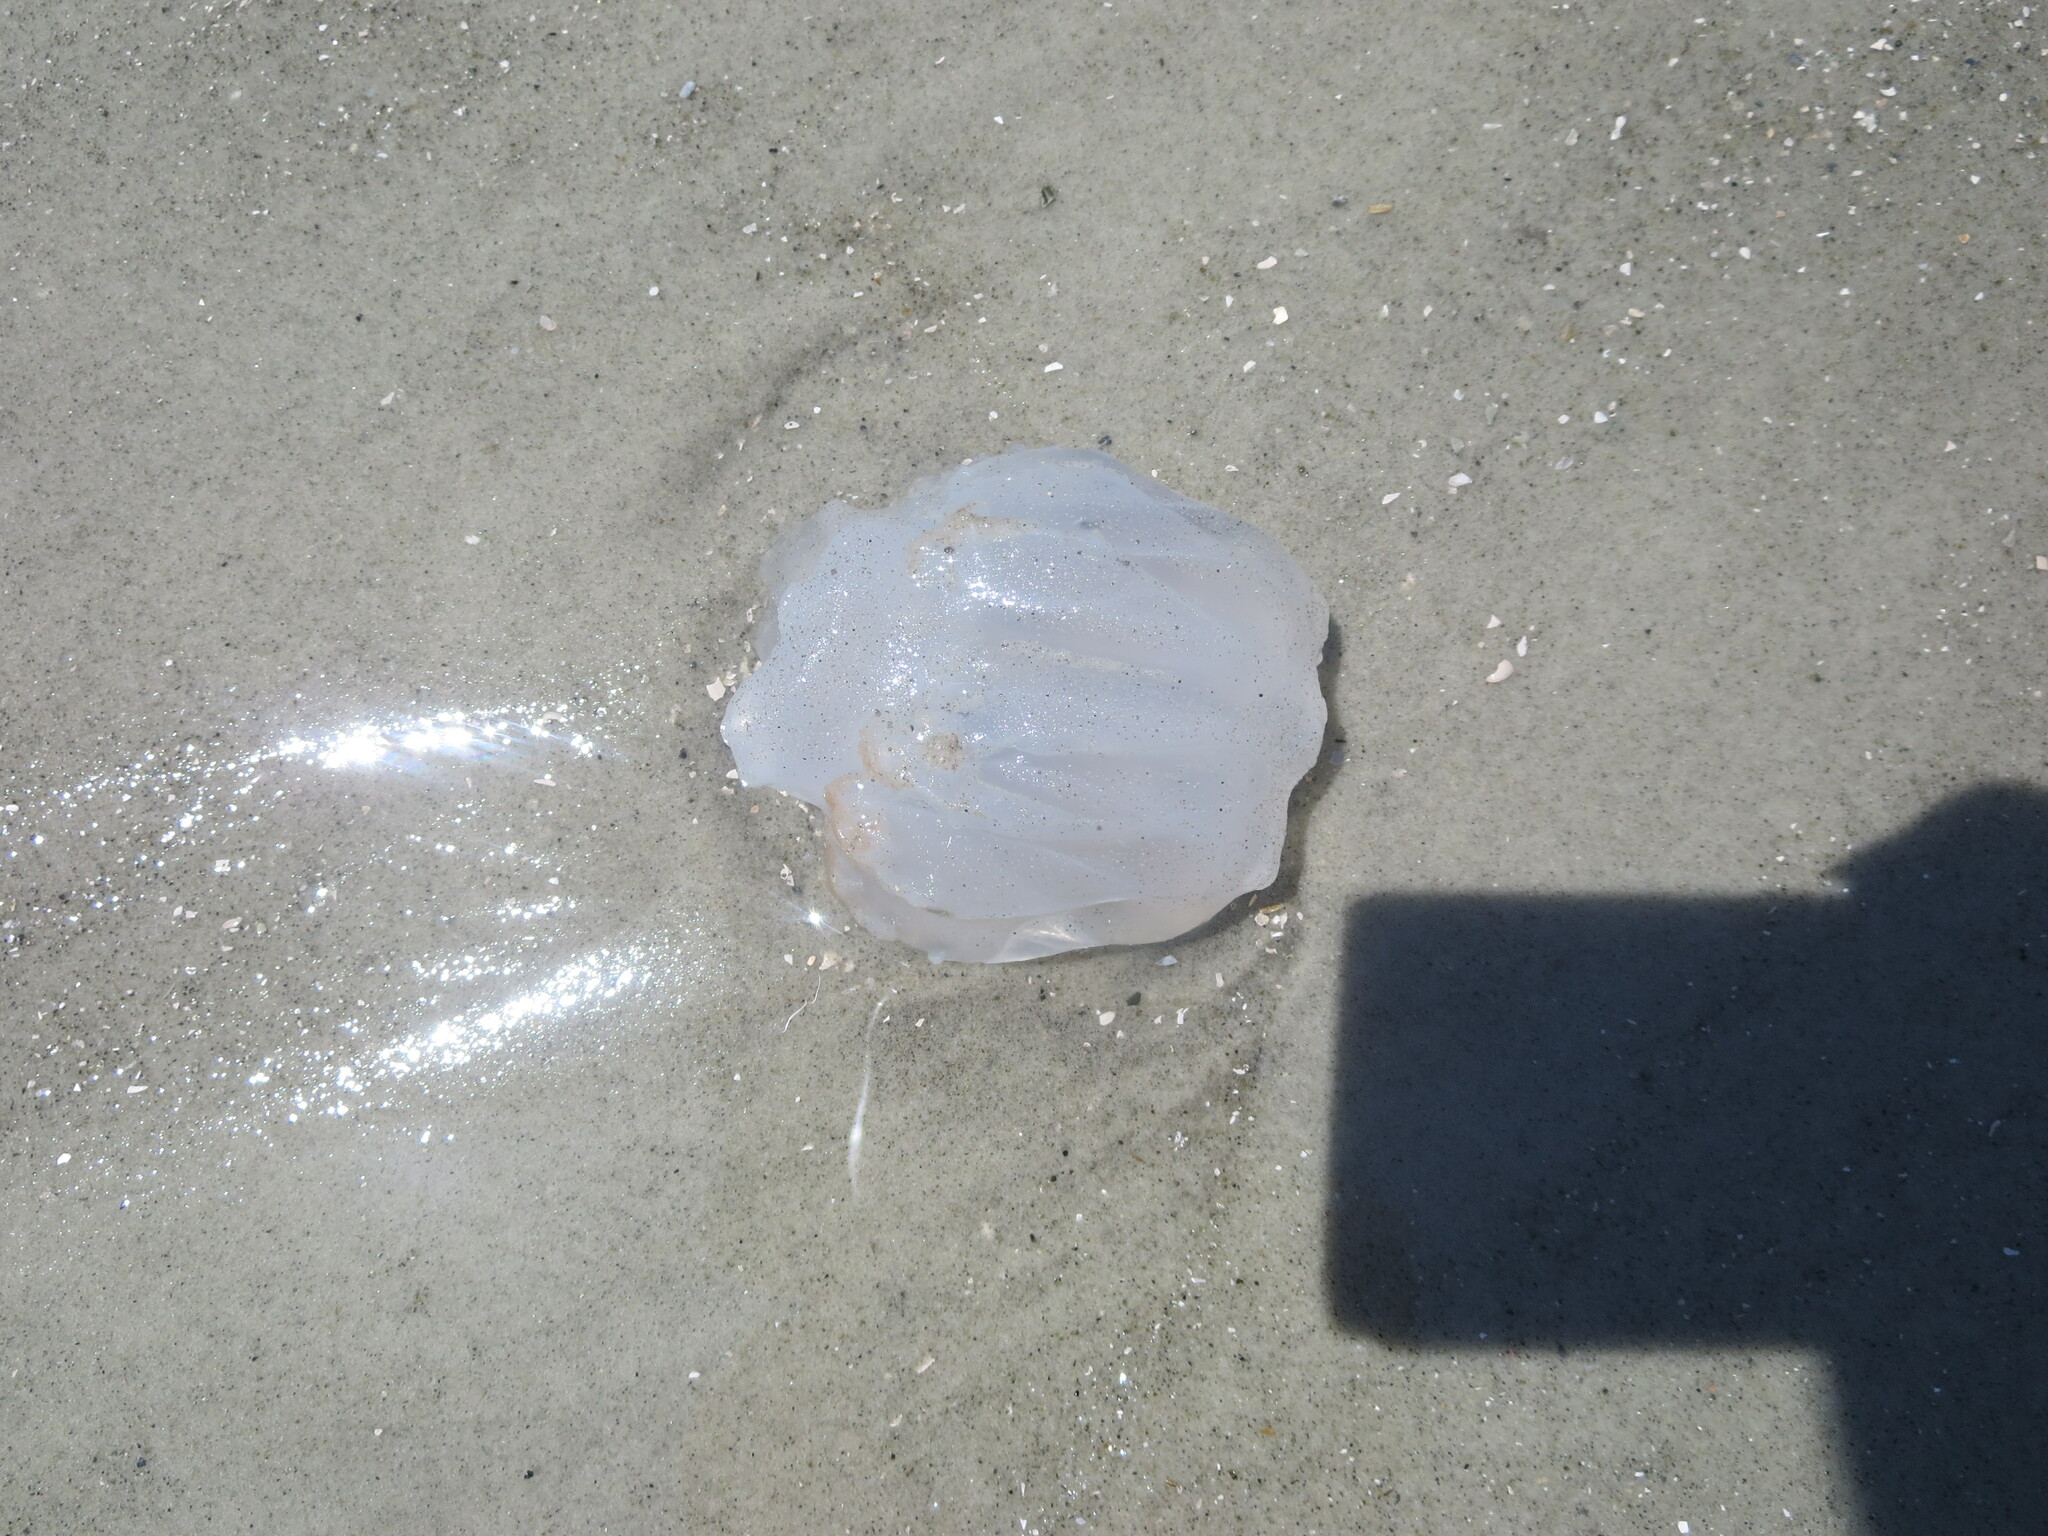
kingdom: Animalia
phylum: Cnidaria
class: Scyphozoa
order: Rhizostomeae
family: Stomolophidae
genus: Stomolophus
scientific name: Stomolophus meleagris
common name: Cabbagehead
